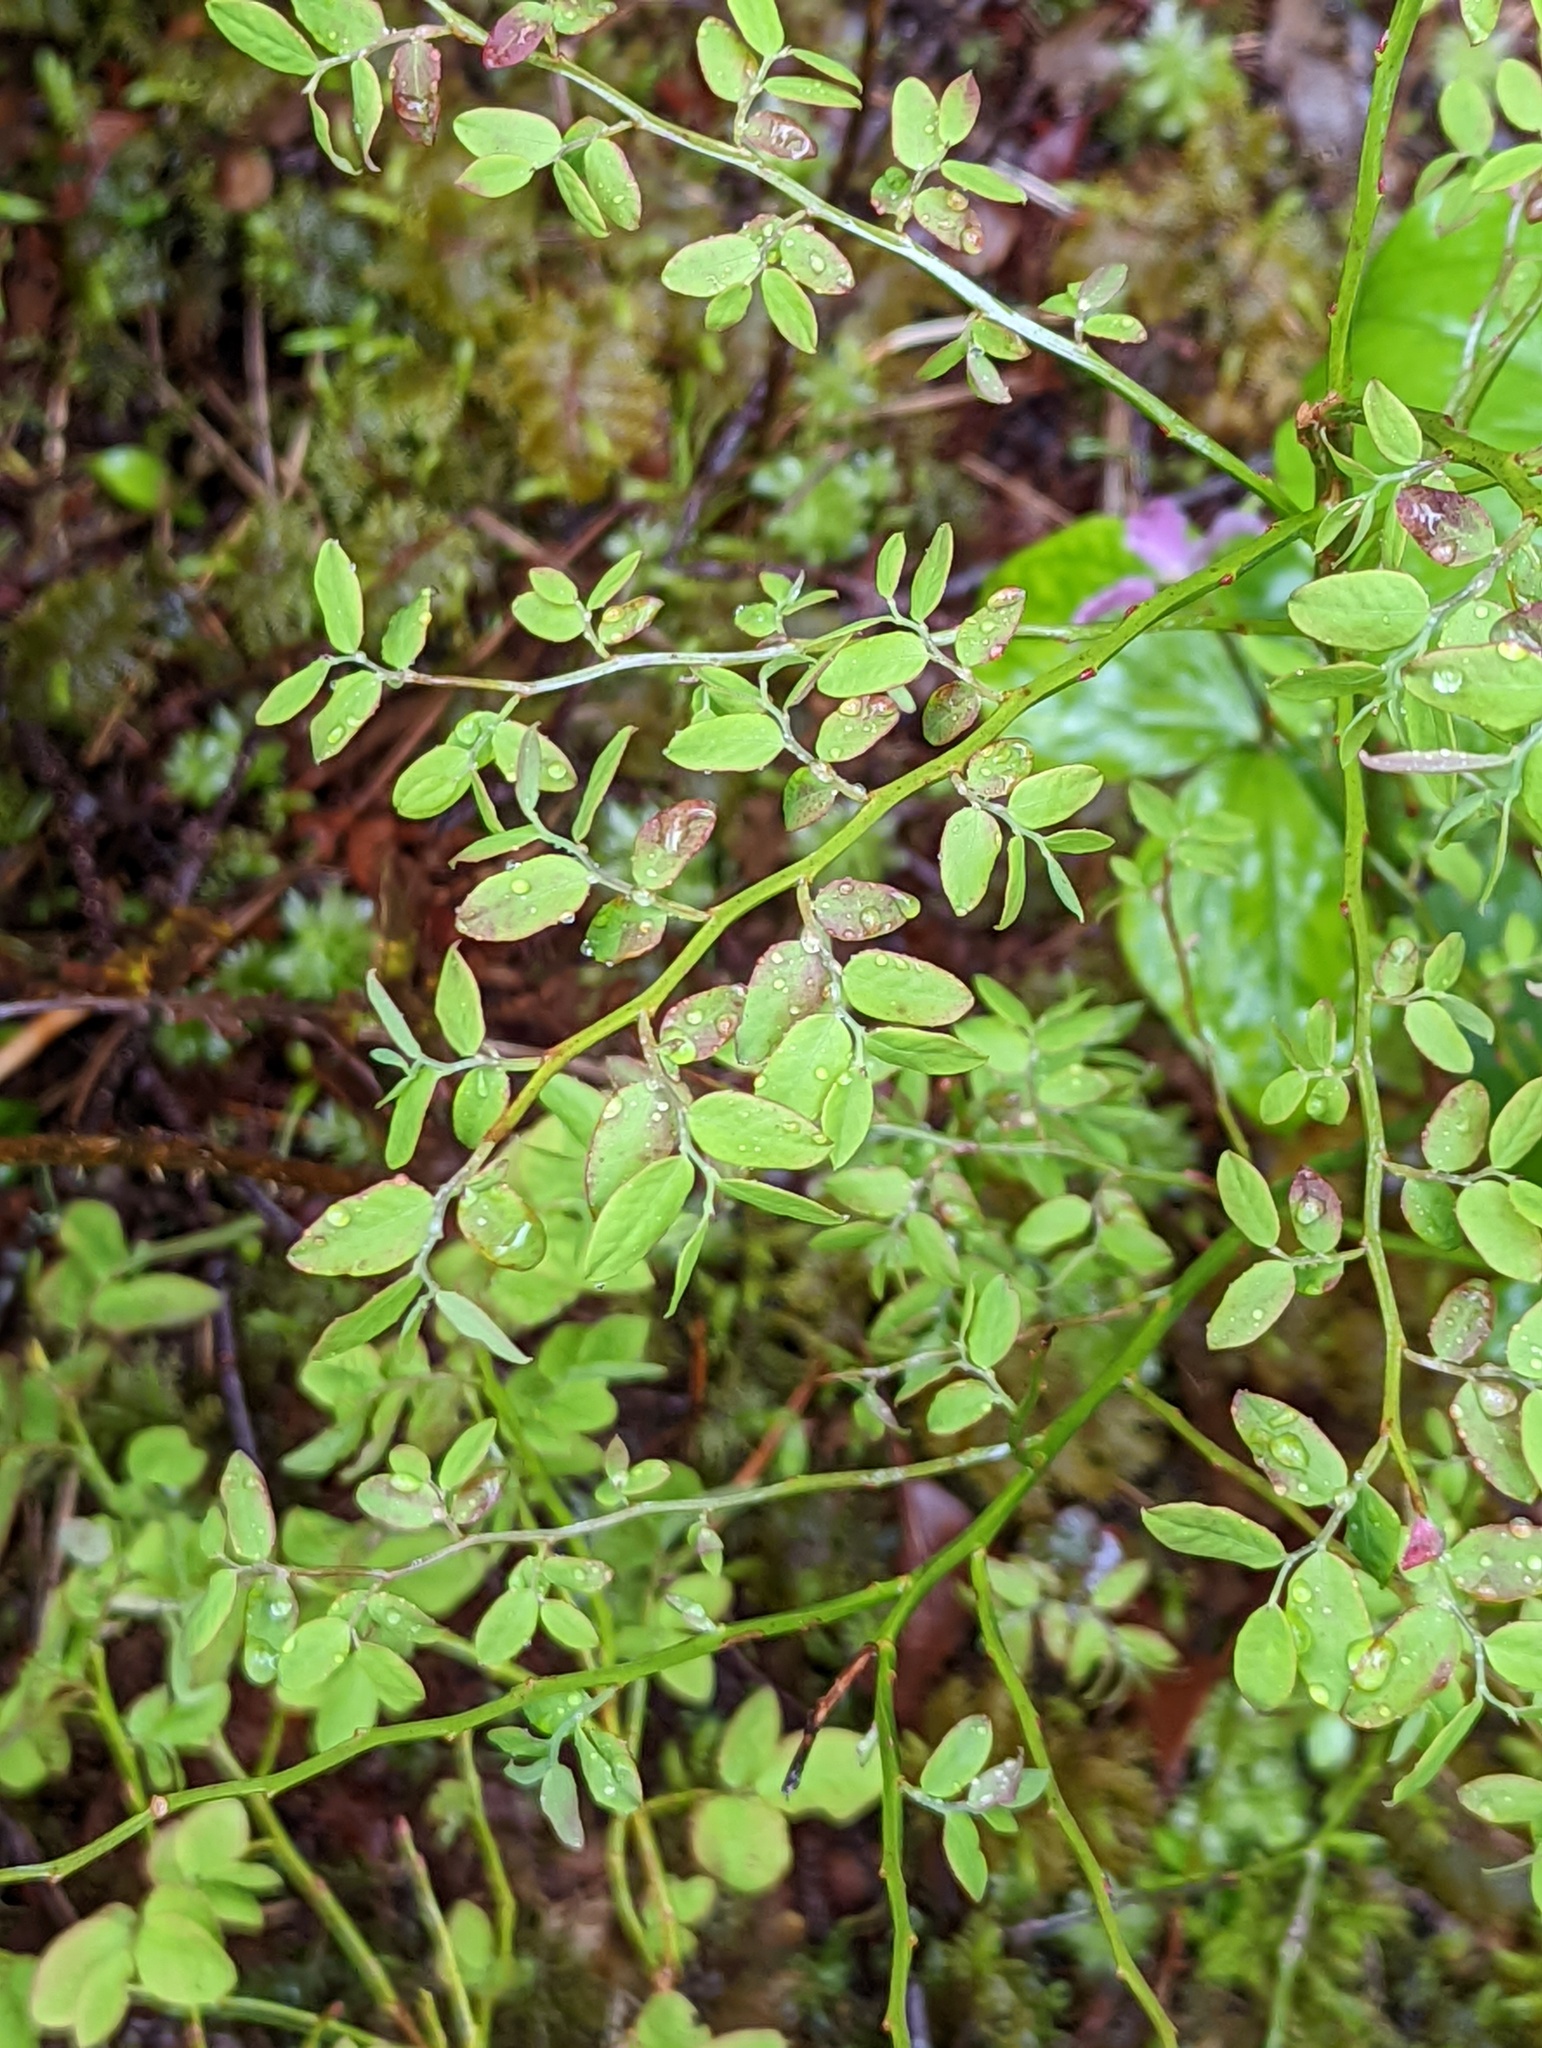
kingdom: Plantae
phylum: Tracheophyta
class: Magnoliopsida
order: Ericales
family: Ericaceae
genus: Vaccinium
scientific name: Vaccinium parvifolium
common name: Red-huckleberry
